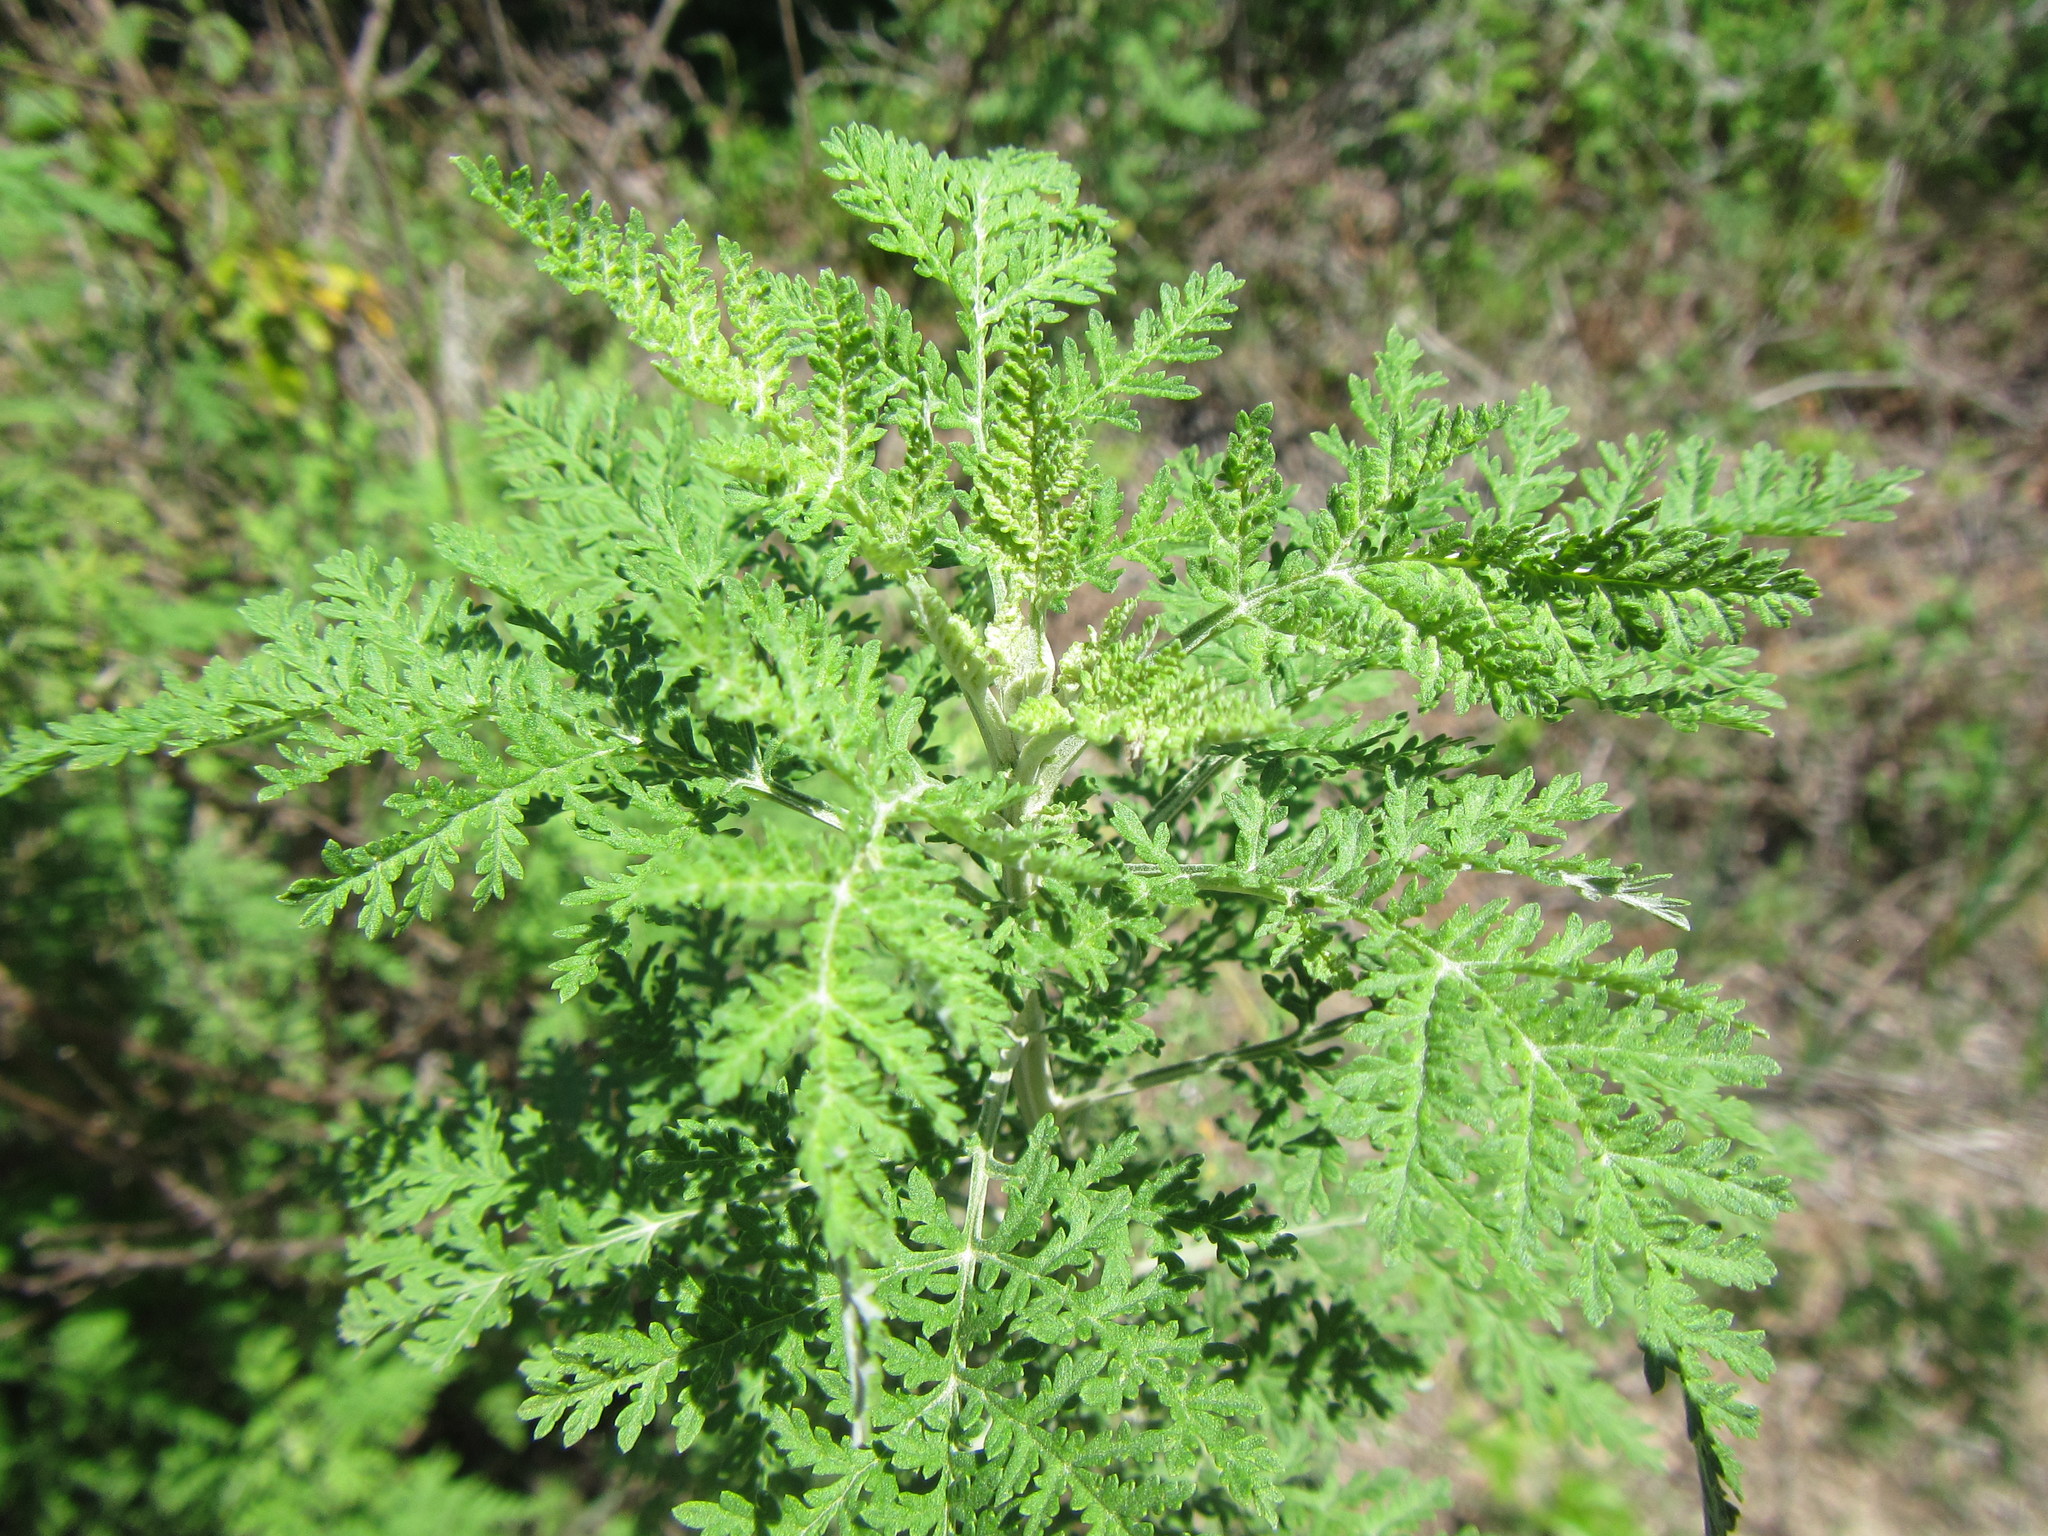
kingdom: Plantae
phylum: Tracheophyta
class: Magnoliopsida
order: Asterales
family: Asteraceae
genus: Artemisia
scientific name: Artemisia afra
